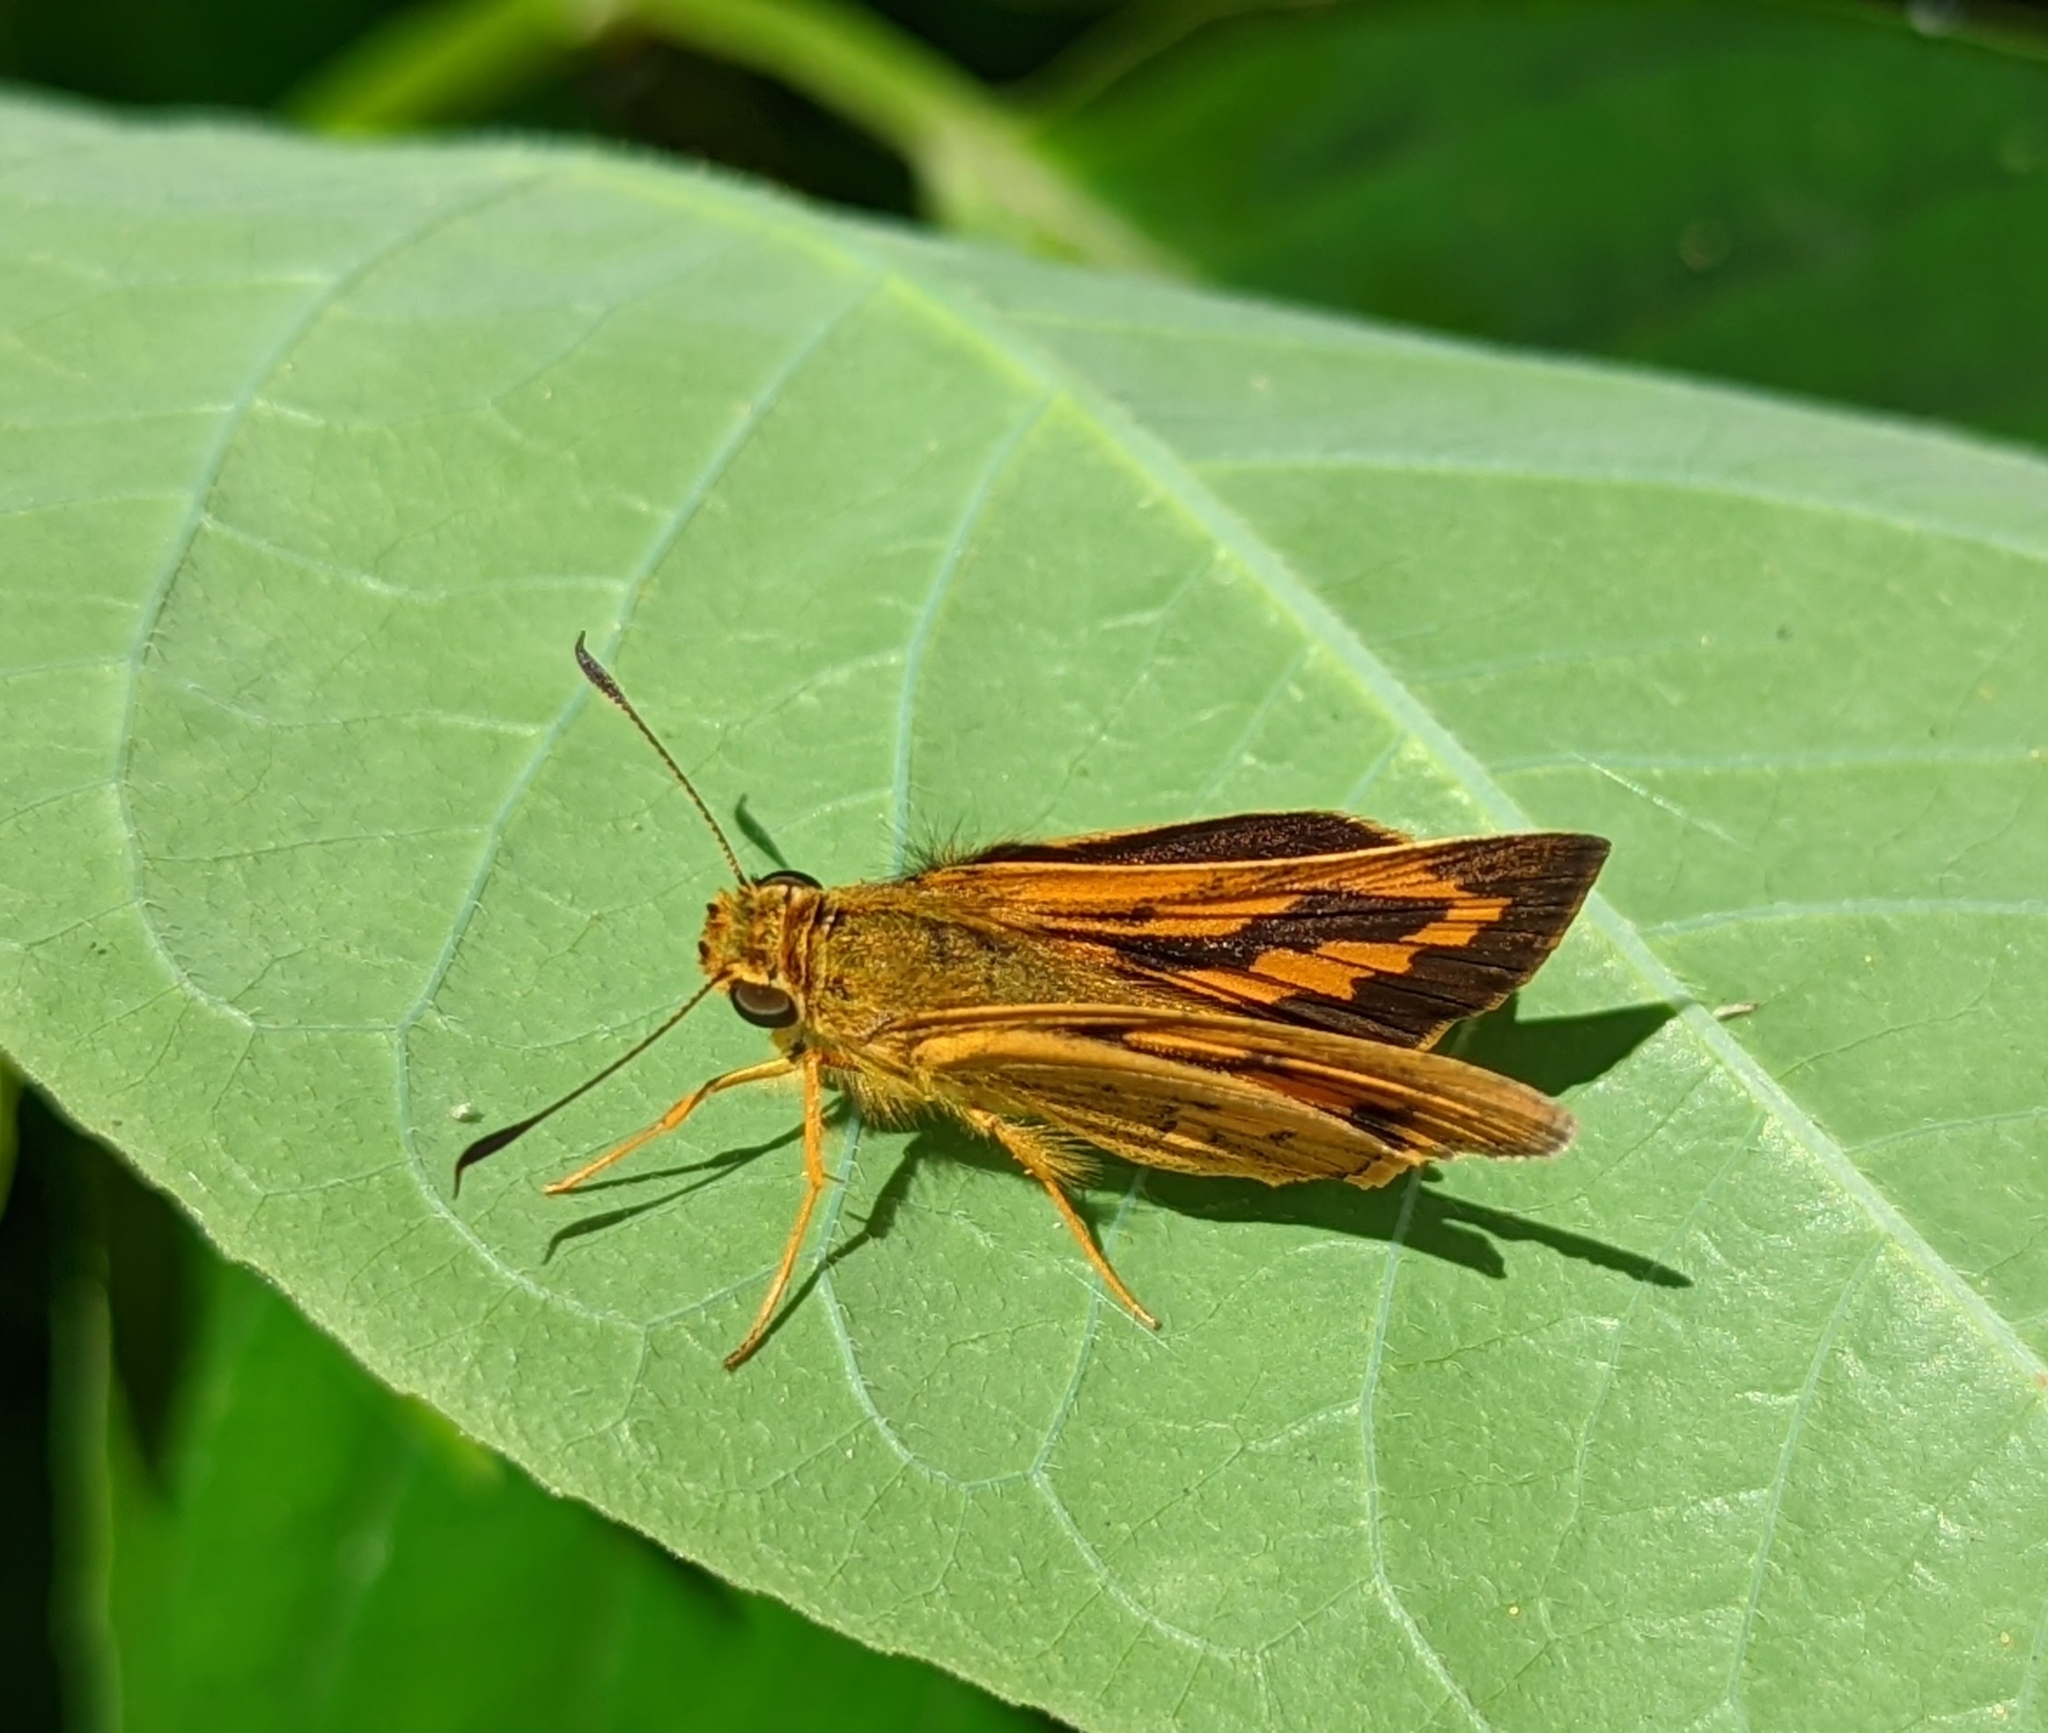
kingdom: Animalia
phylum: Arthropoda
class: Insecta
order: Lepidoptera
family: Hesperiidae
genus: Telicota
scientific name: Telicota bambusae
